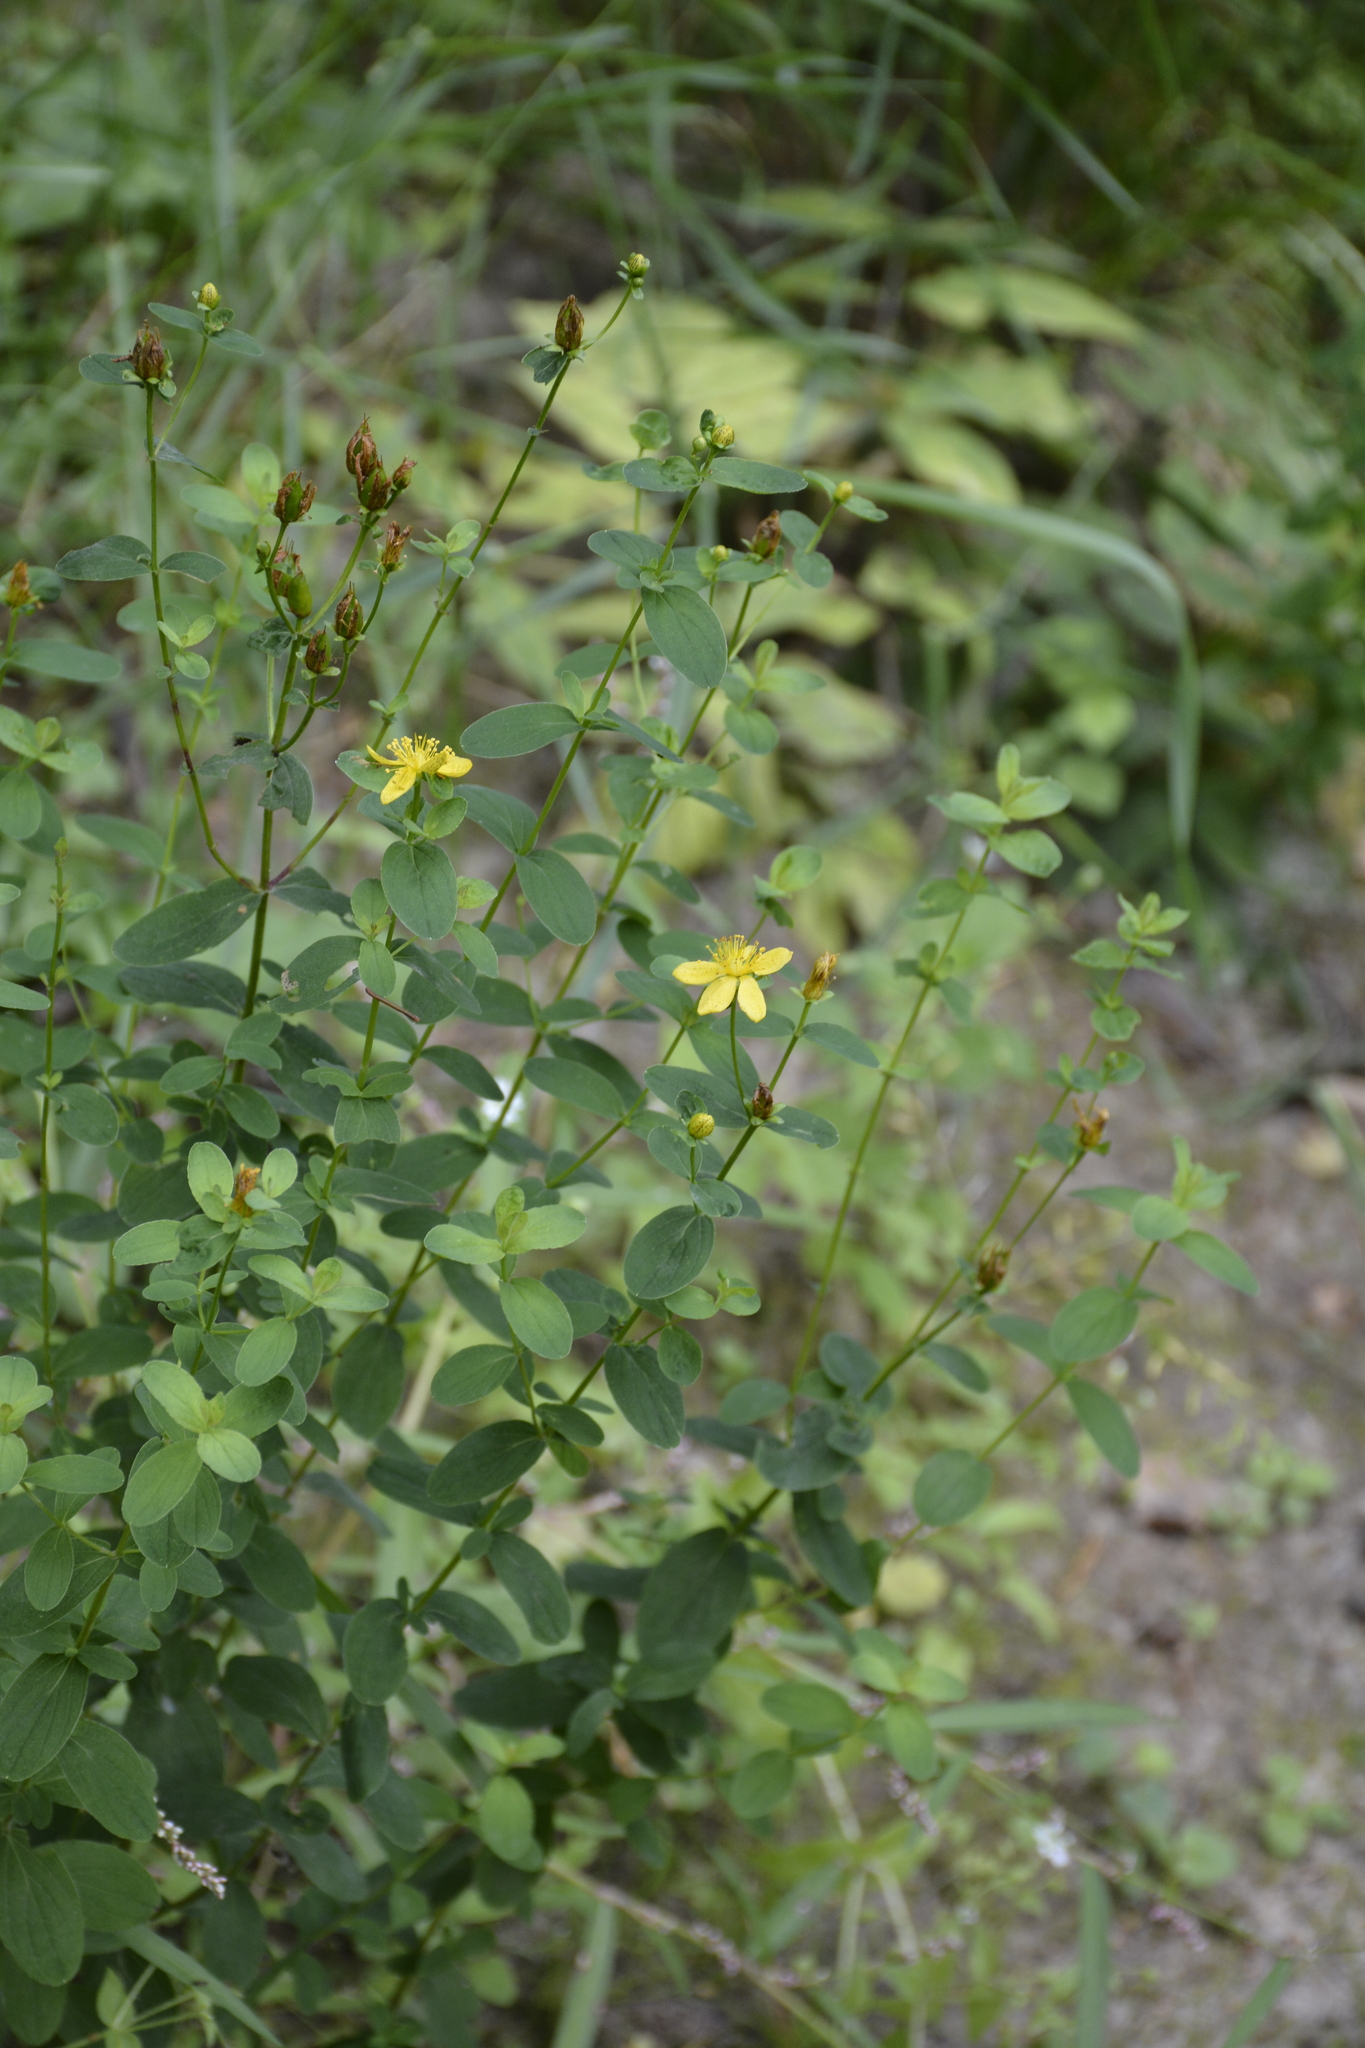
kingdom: Plantae
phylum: Tracheophyta
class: Magnoliopsida
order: Malpighiales
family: Hypericaceae
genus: Hypericum
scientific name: Hypericum maculatum
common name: Imperforate st. john's-wort
